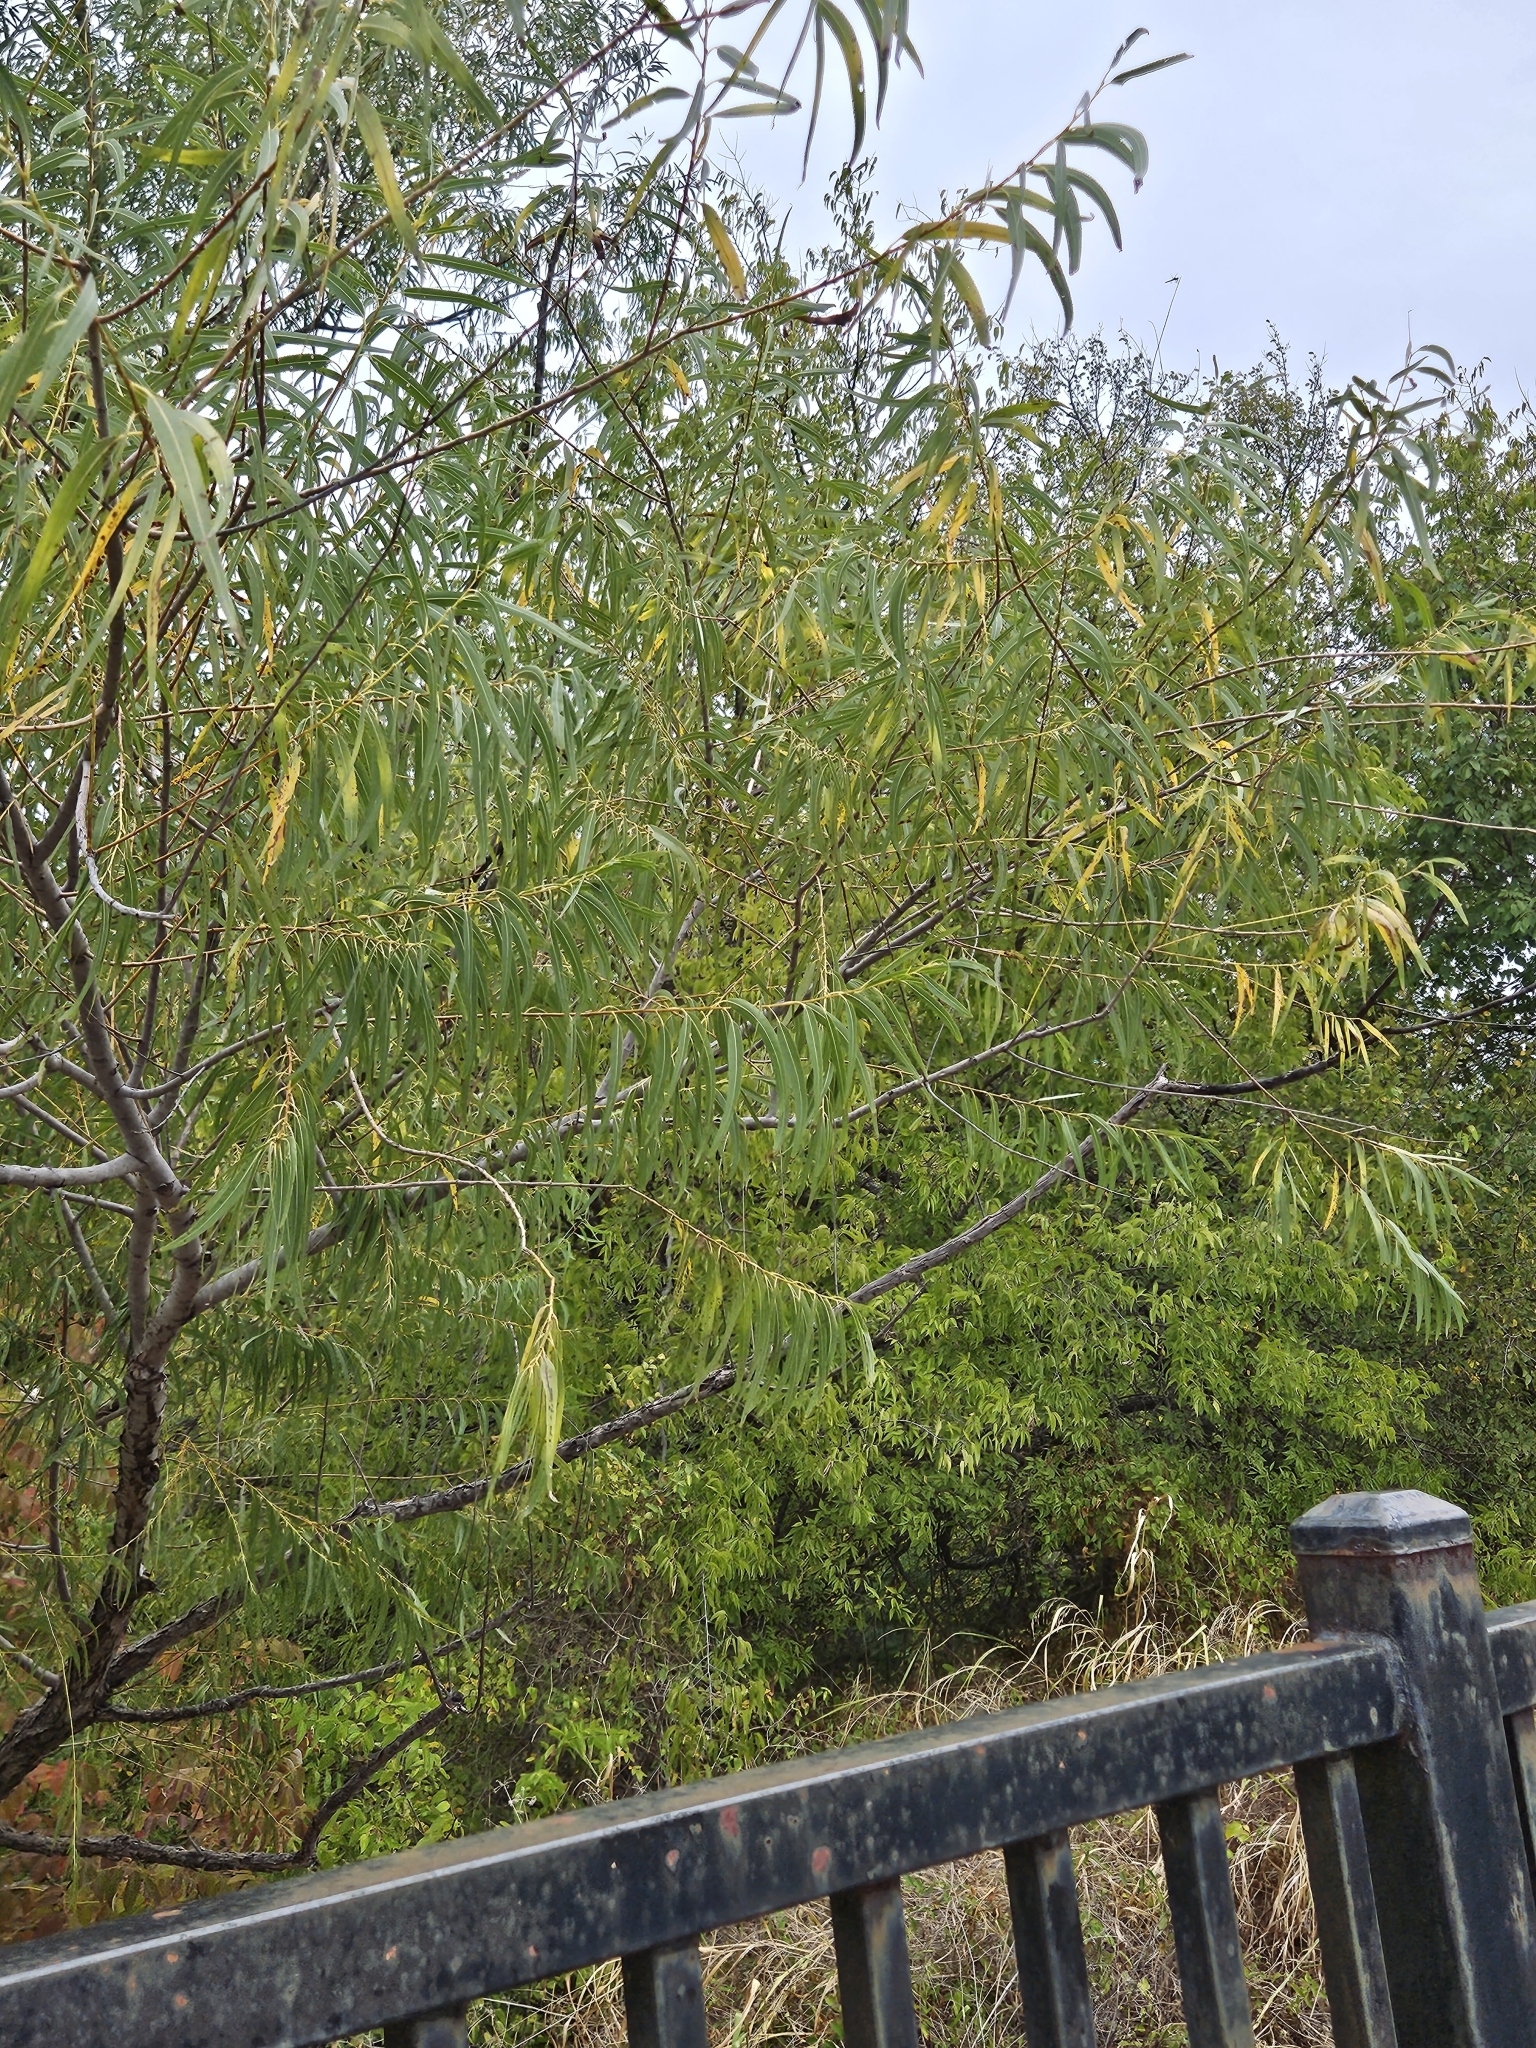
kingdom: Plantae
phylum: Tracheophyta
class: Magnoliopsida
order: Malpighiales
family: Salicaceae
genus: Salix
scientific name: Salix nigra
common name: Black willow
